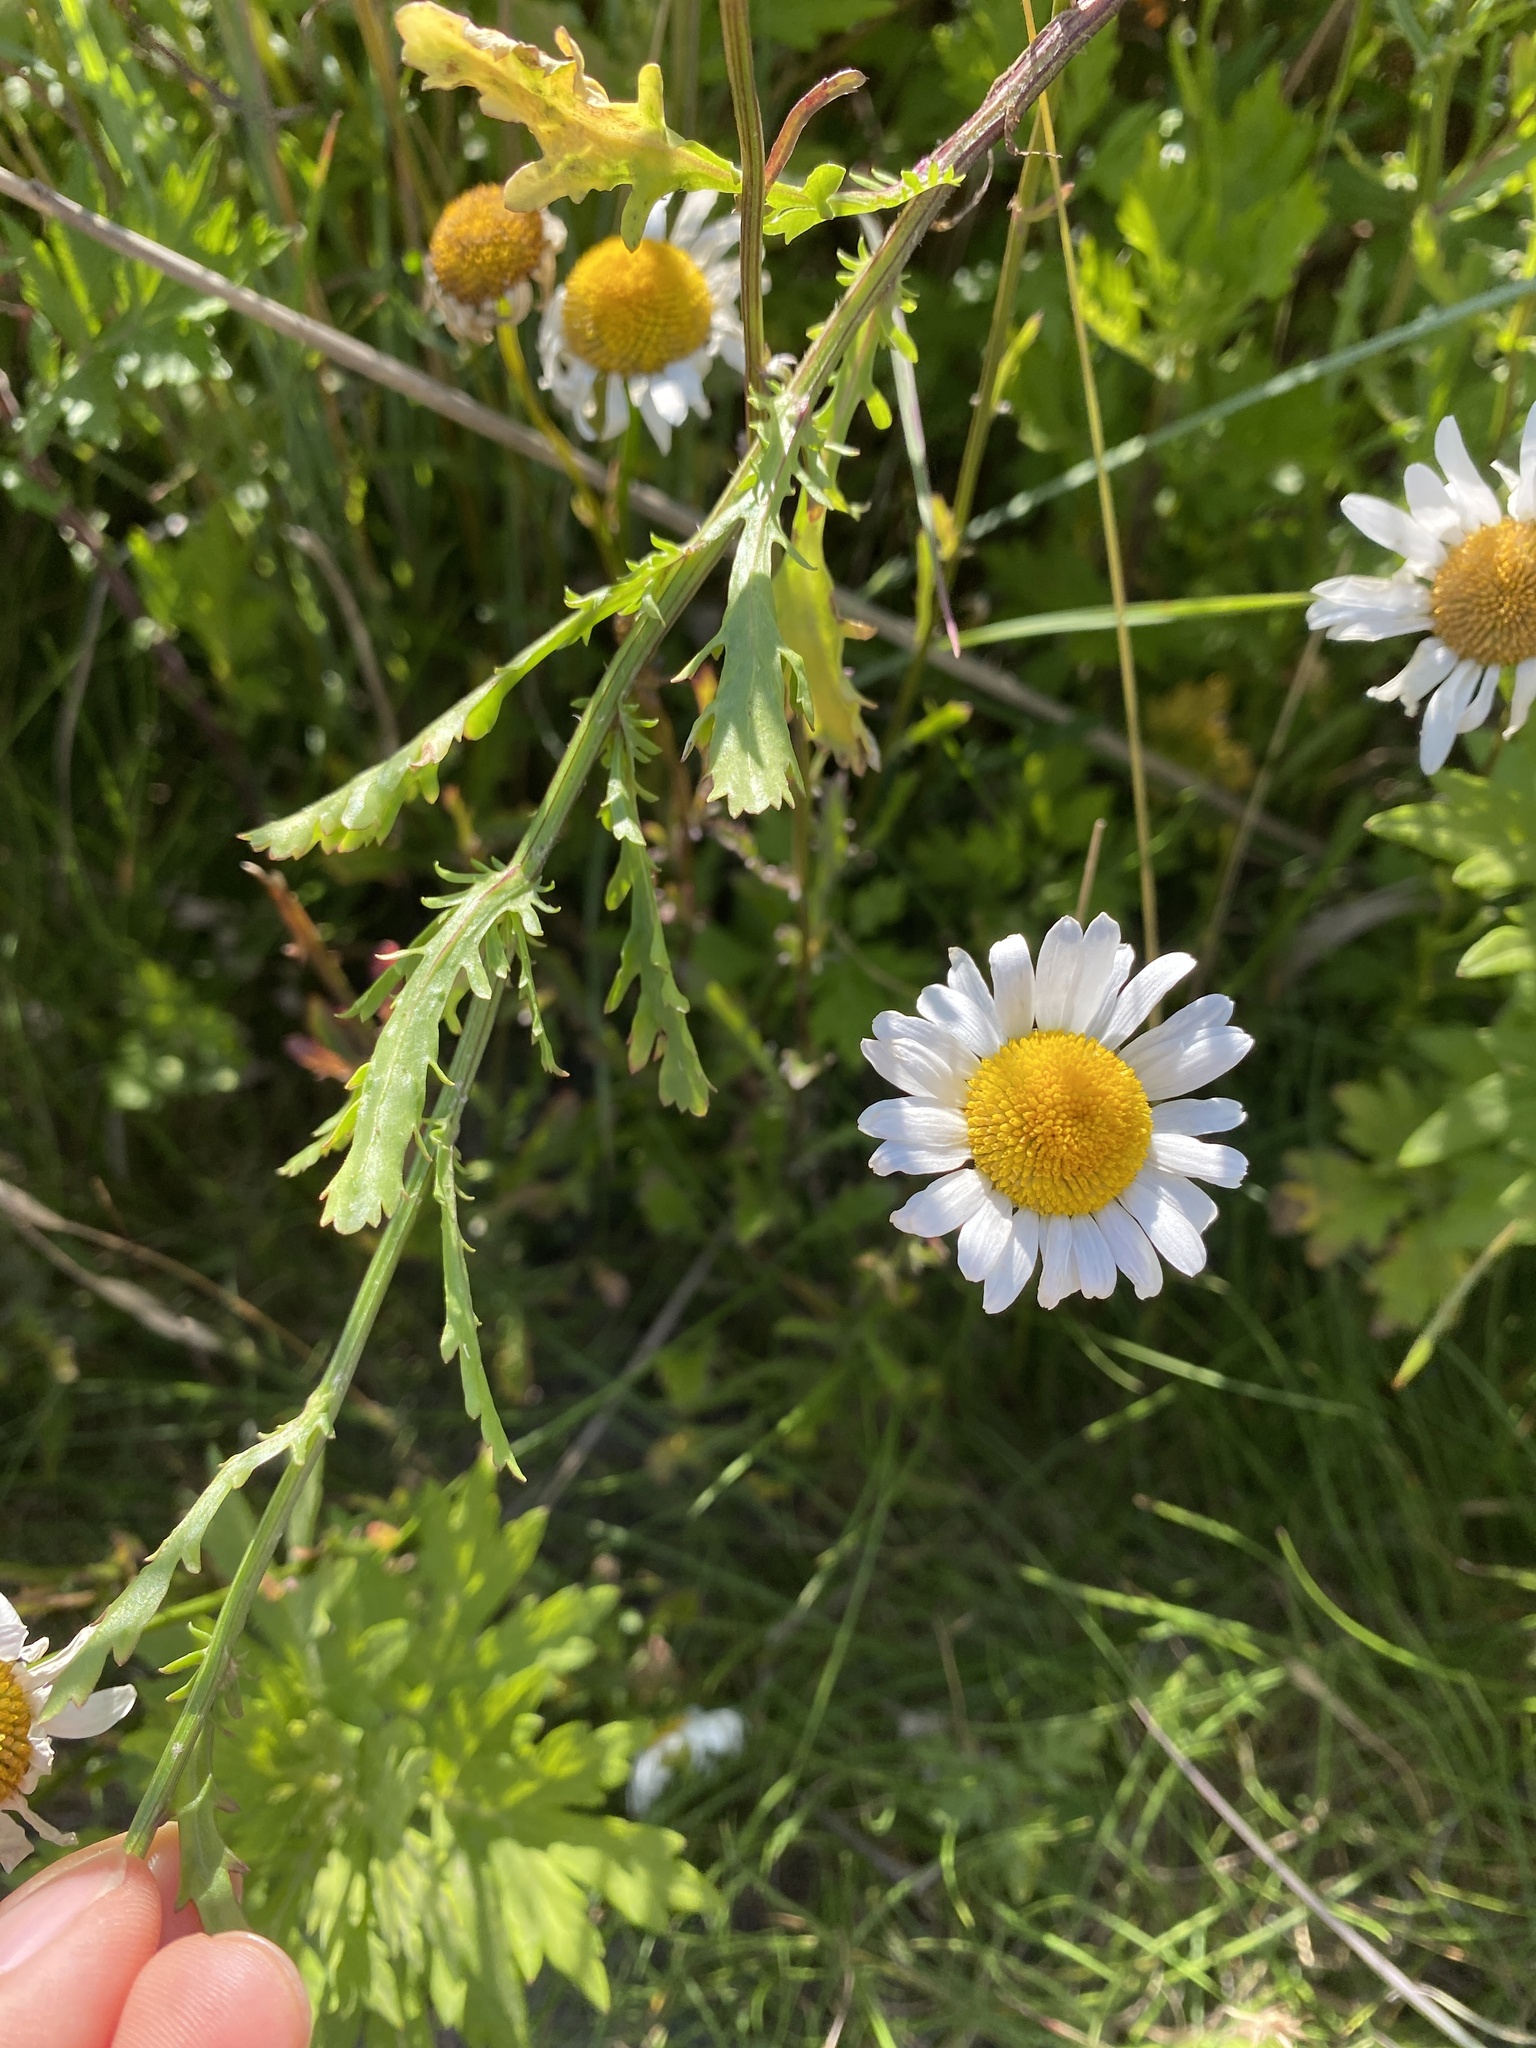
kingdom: Plantae
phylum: Tracheophyta
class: Magnoliopsida
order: Asterales
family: Asteraceae
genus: Leucanthemum
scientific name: Leucanthemum vulgare
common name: Oxeye daisy
